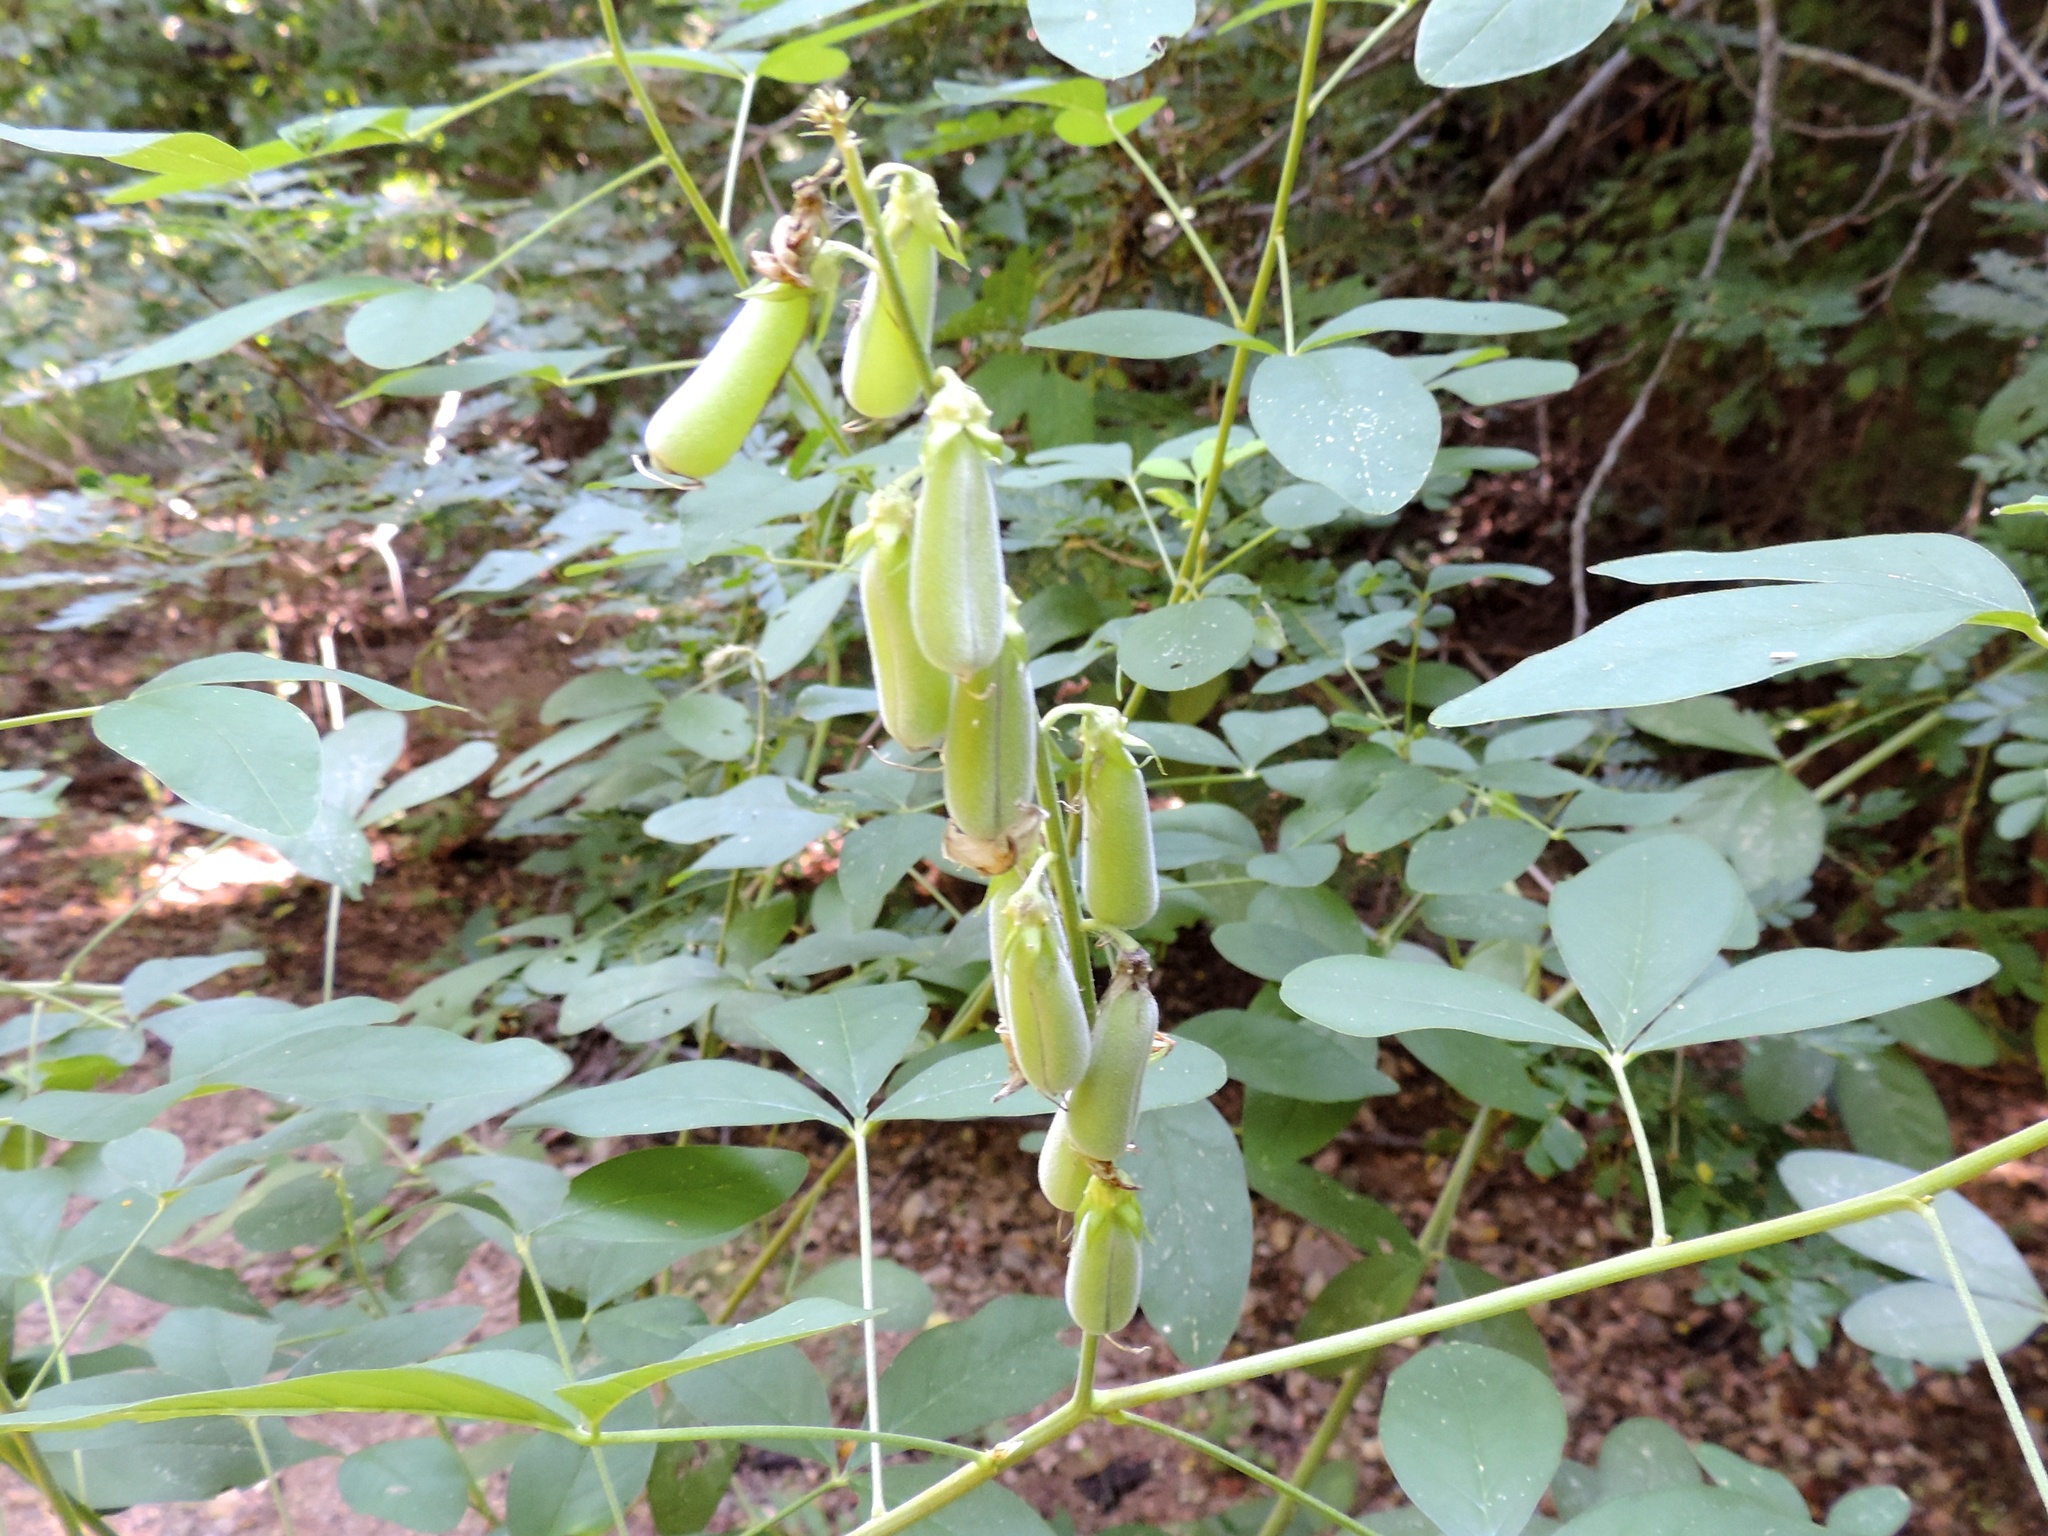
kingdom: Plantae
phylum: Tracheophyta
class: Magnoliopsida
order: Fabales
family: Fabaceae
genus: Crotalaria
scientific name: Crotalaria incana
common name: Shakeshake
